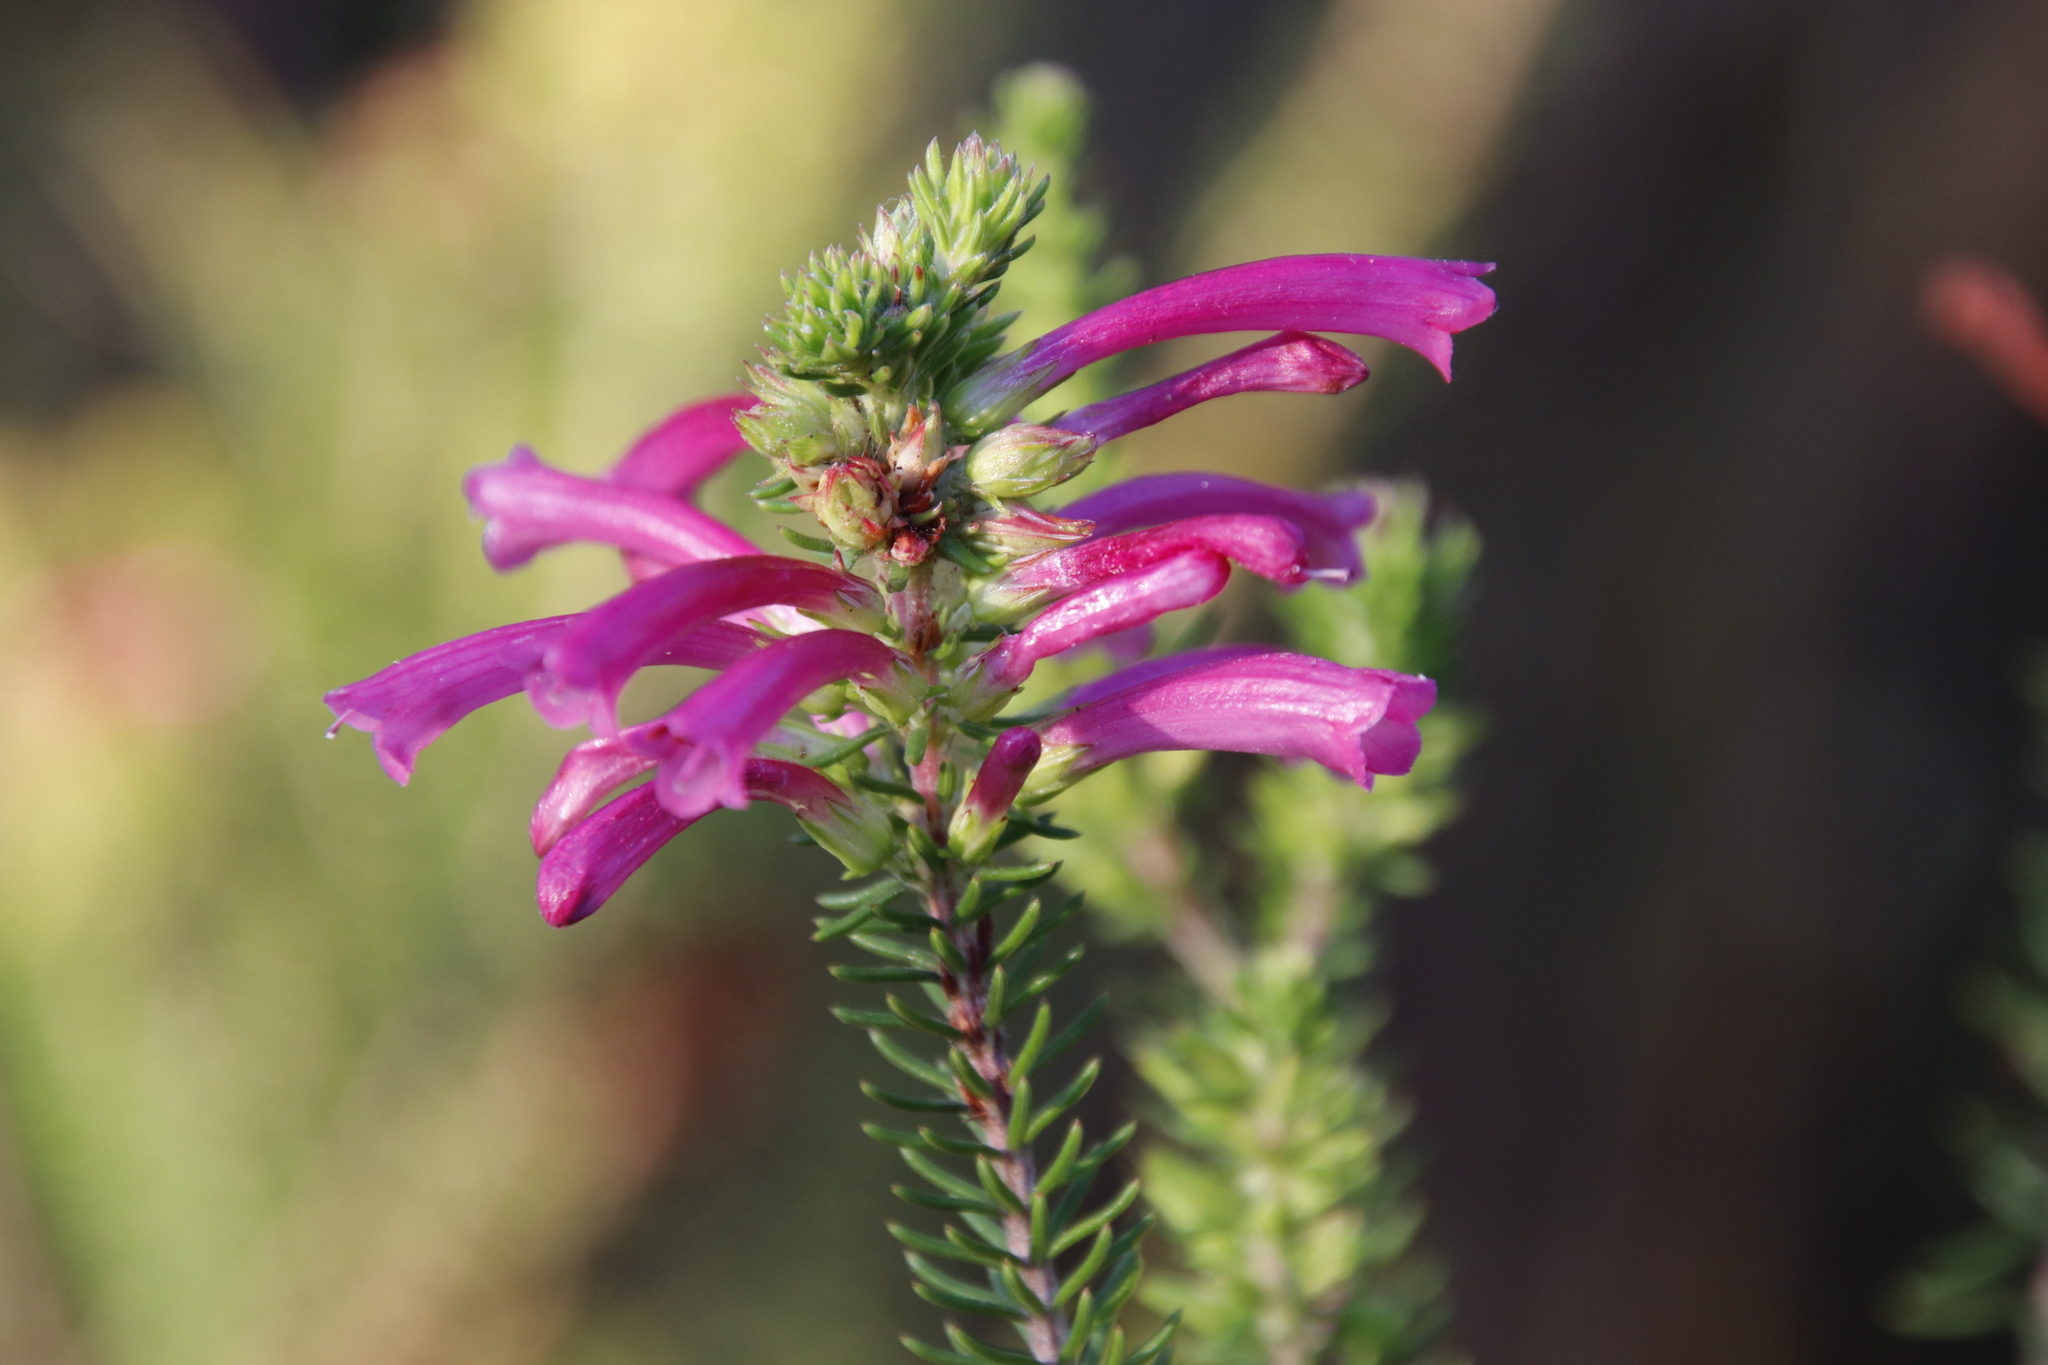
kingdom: Plantae
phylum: Tracheophyta
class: Magnoliopsida
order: Ericales
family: Ericaceae
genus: Erica
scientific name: Erica abietina
